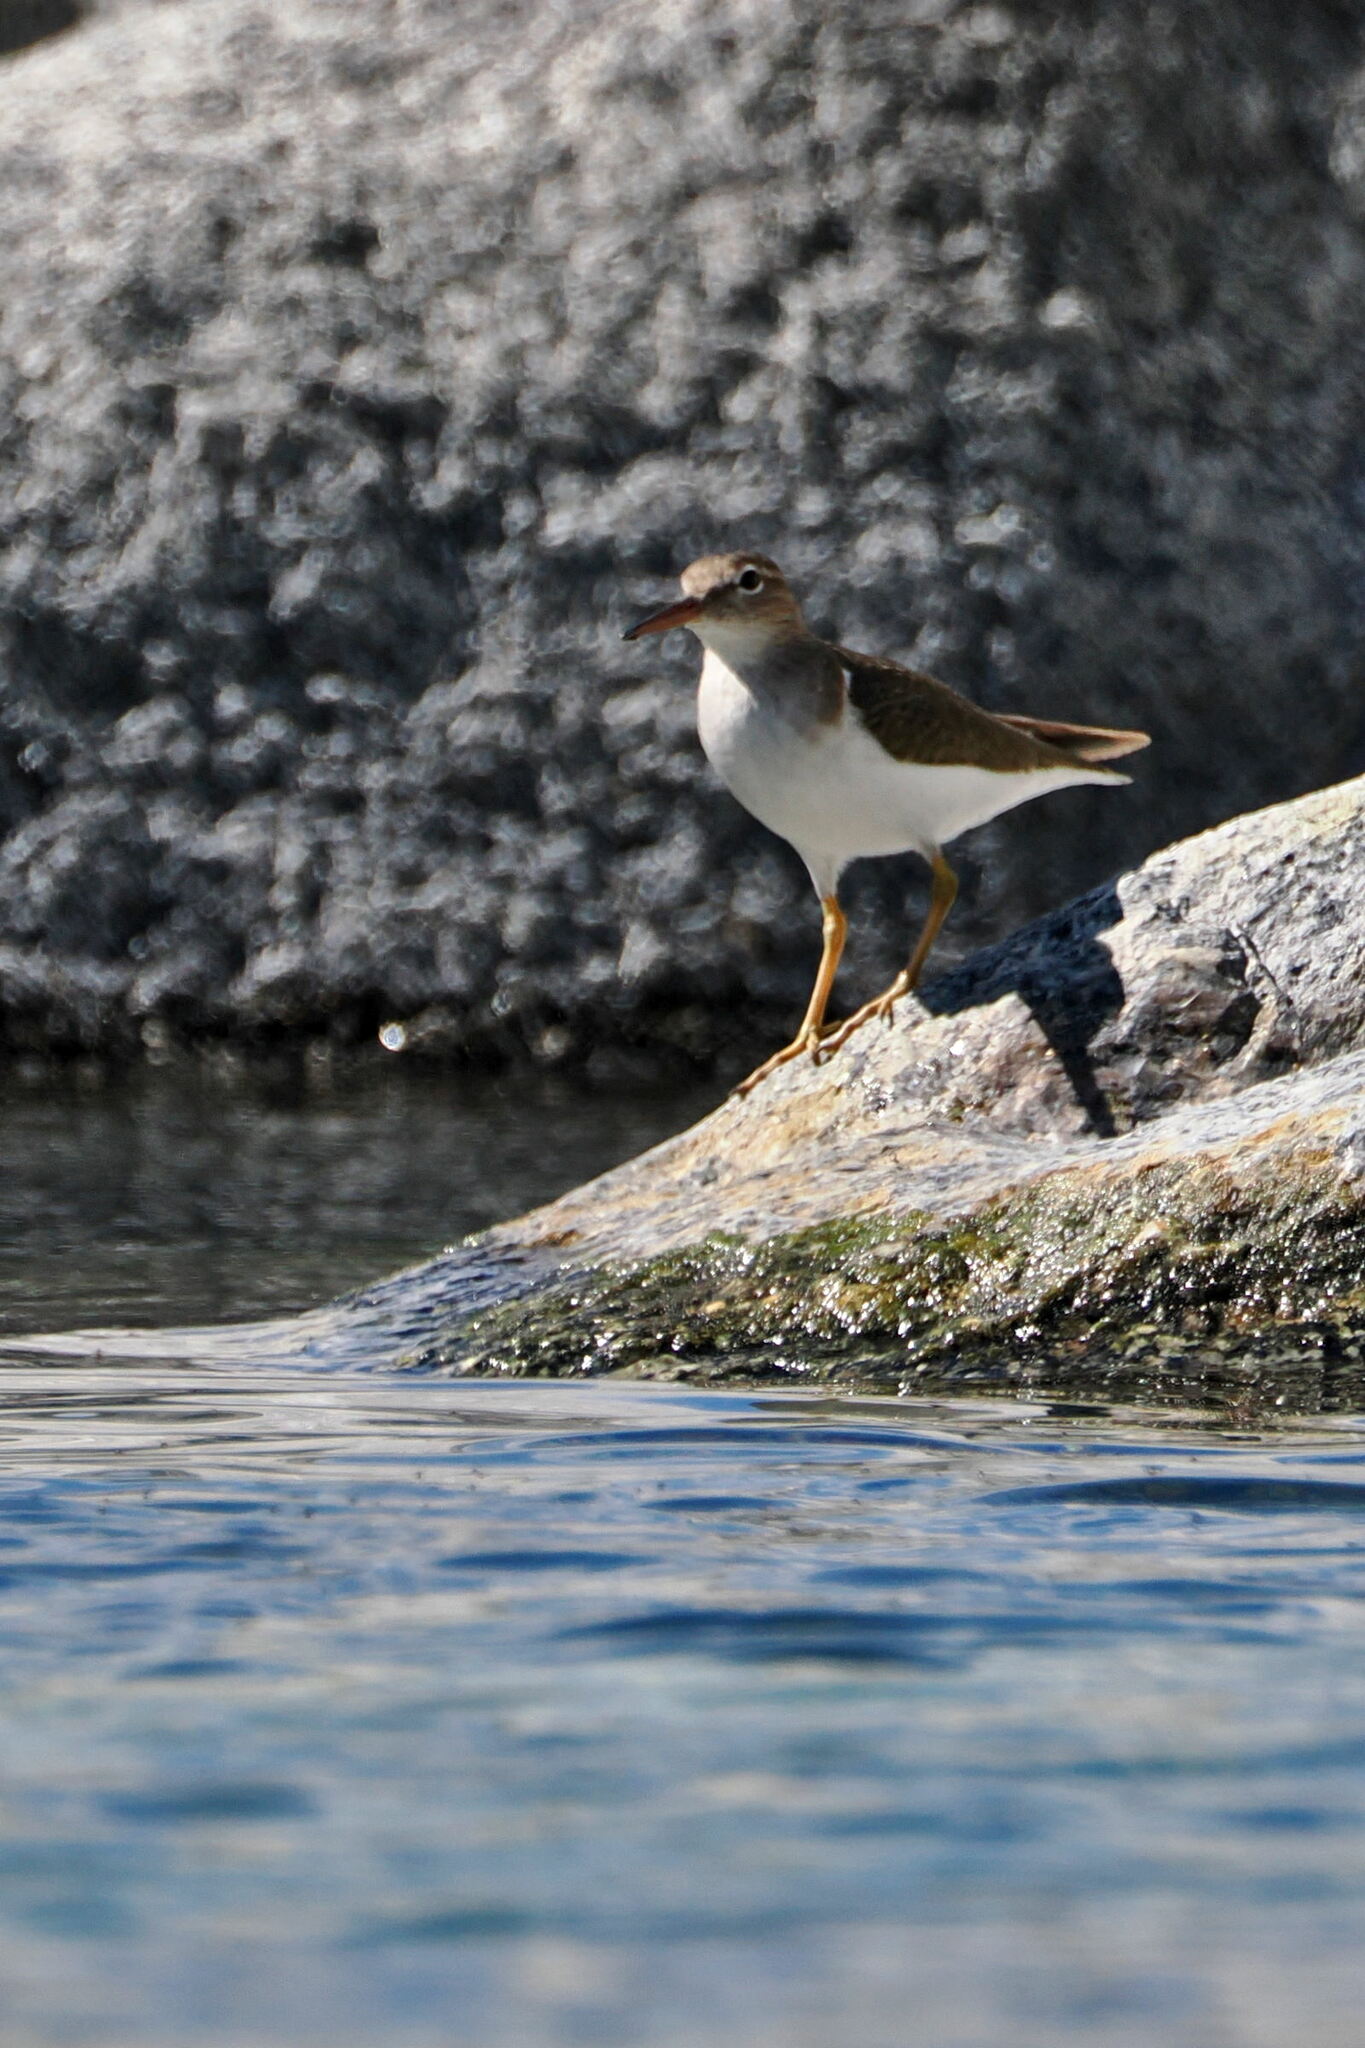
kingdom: Animalia
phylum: Chordata
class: Aves
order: Charadriiformes
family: Scolopacidae
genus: Actitis
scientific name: Actitis macularius
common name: Spotted sandpiper
